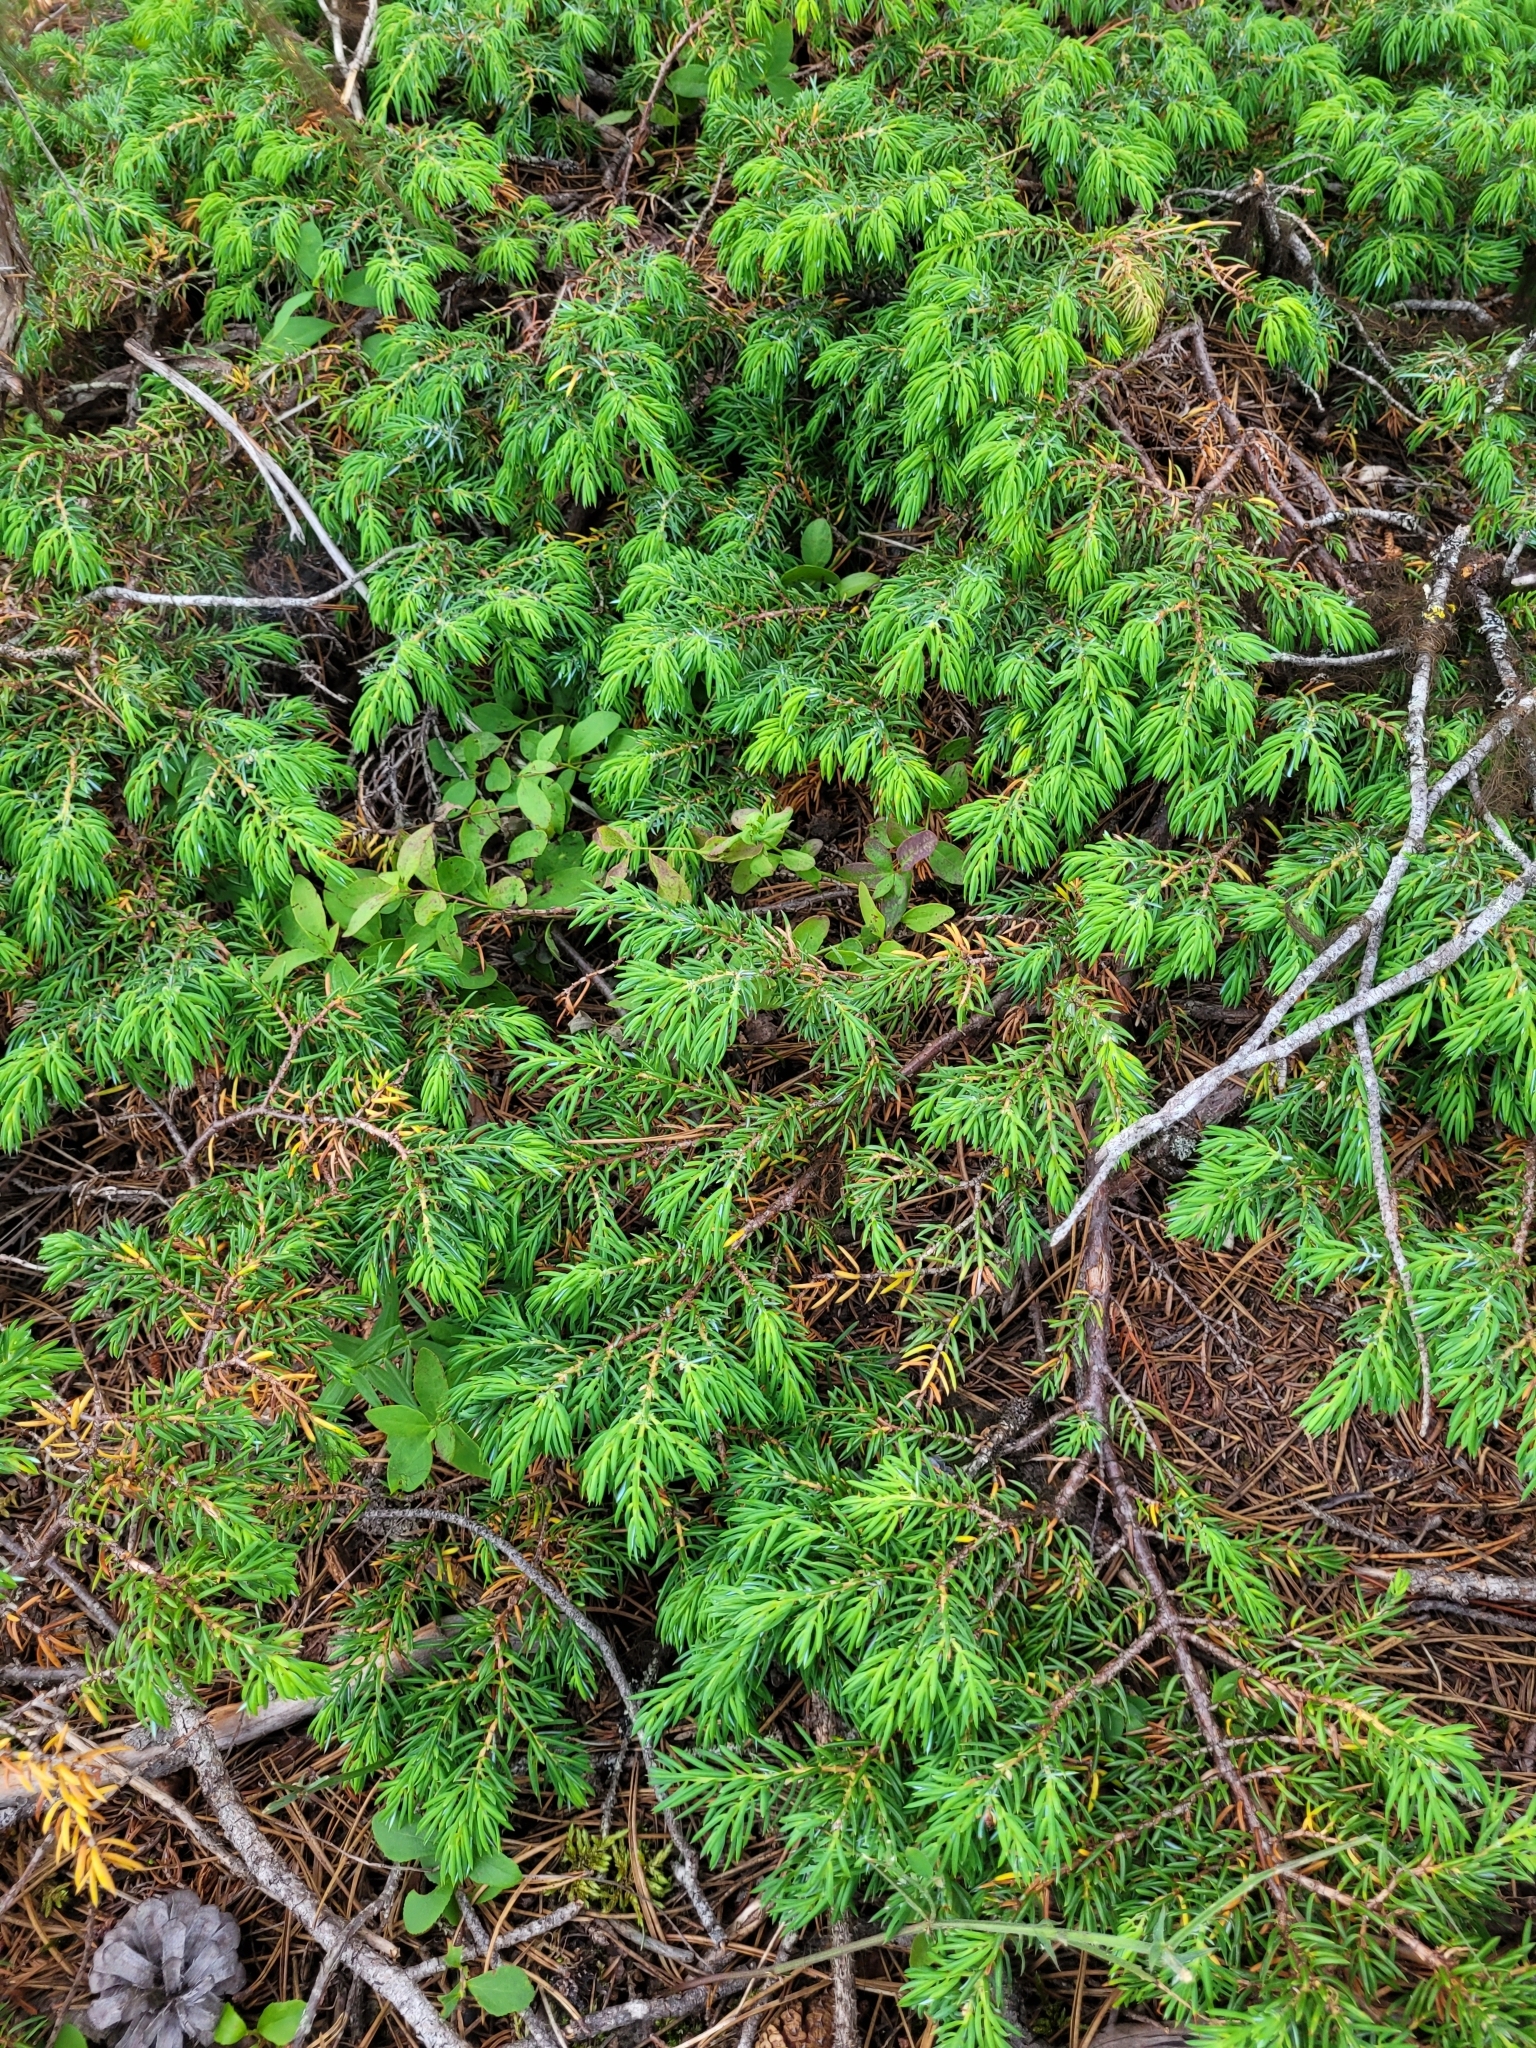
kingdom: Plantae
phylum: Tracheophyta
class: Pinopsida
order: Pinales
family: Cupressaceae
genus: Juniperus
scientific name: Juniperus communis
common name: Common juniper
